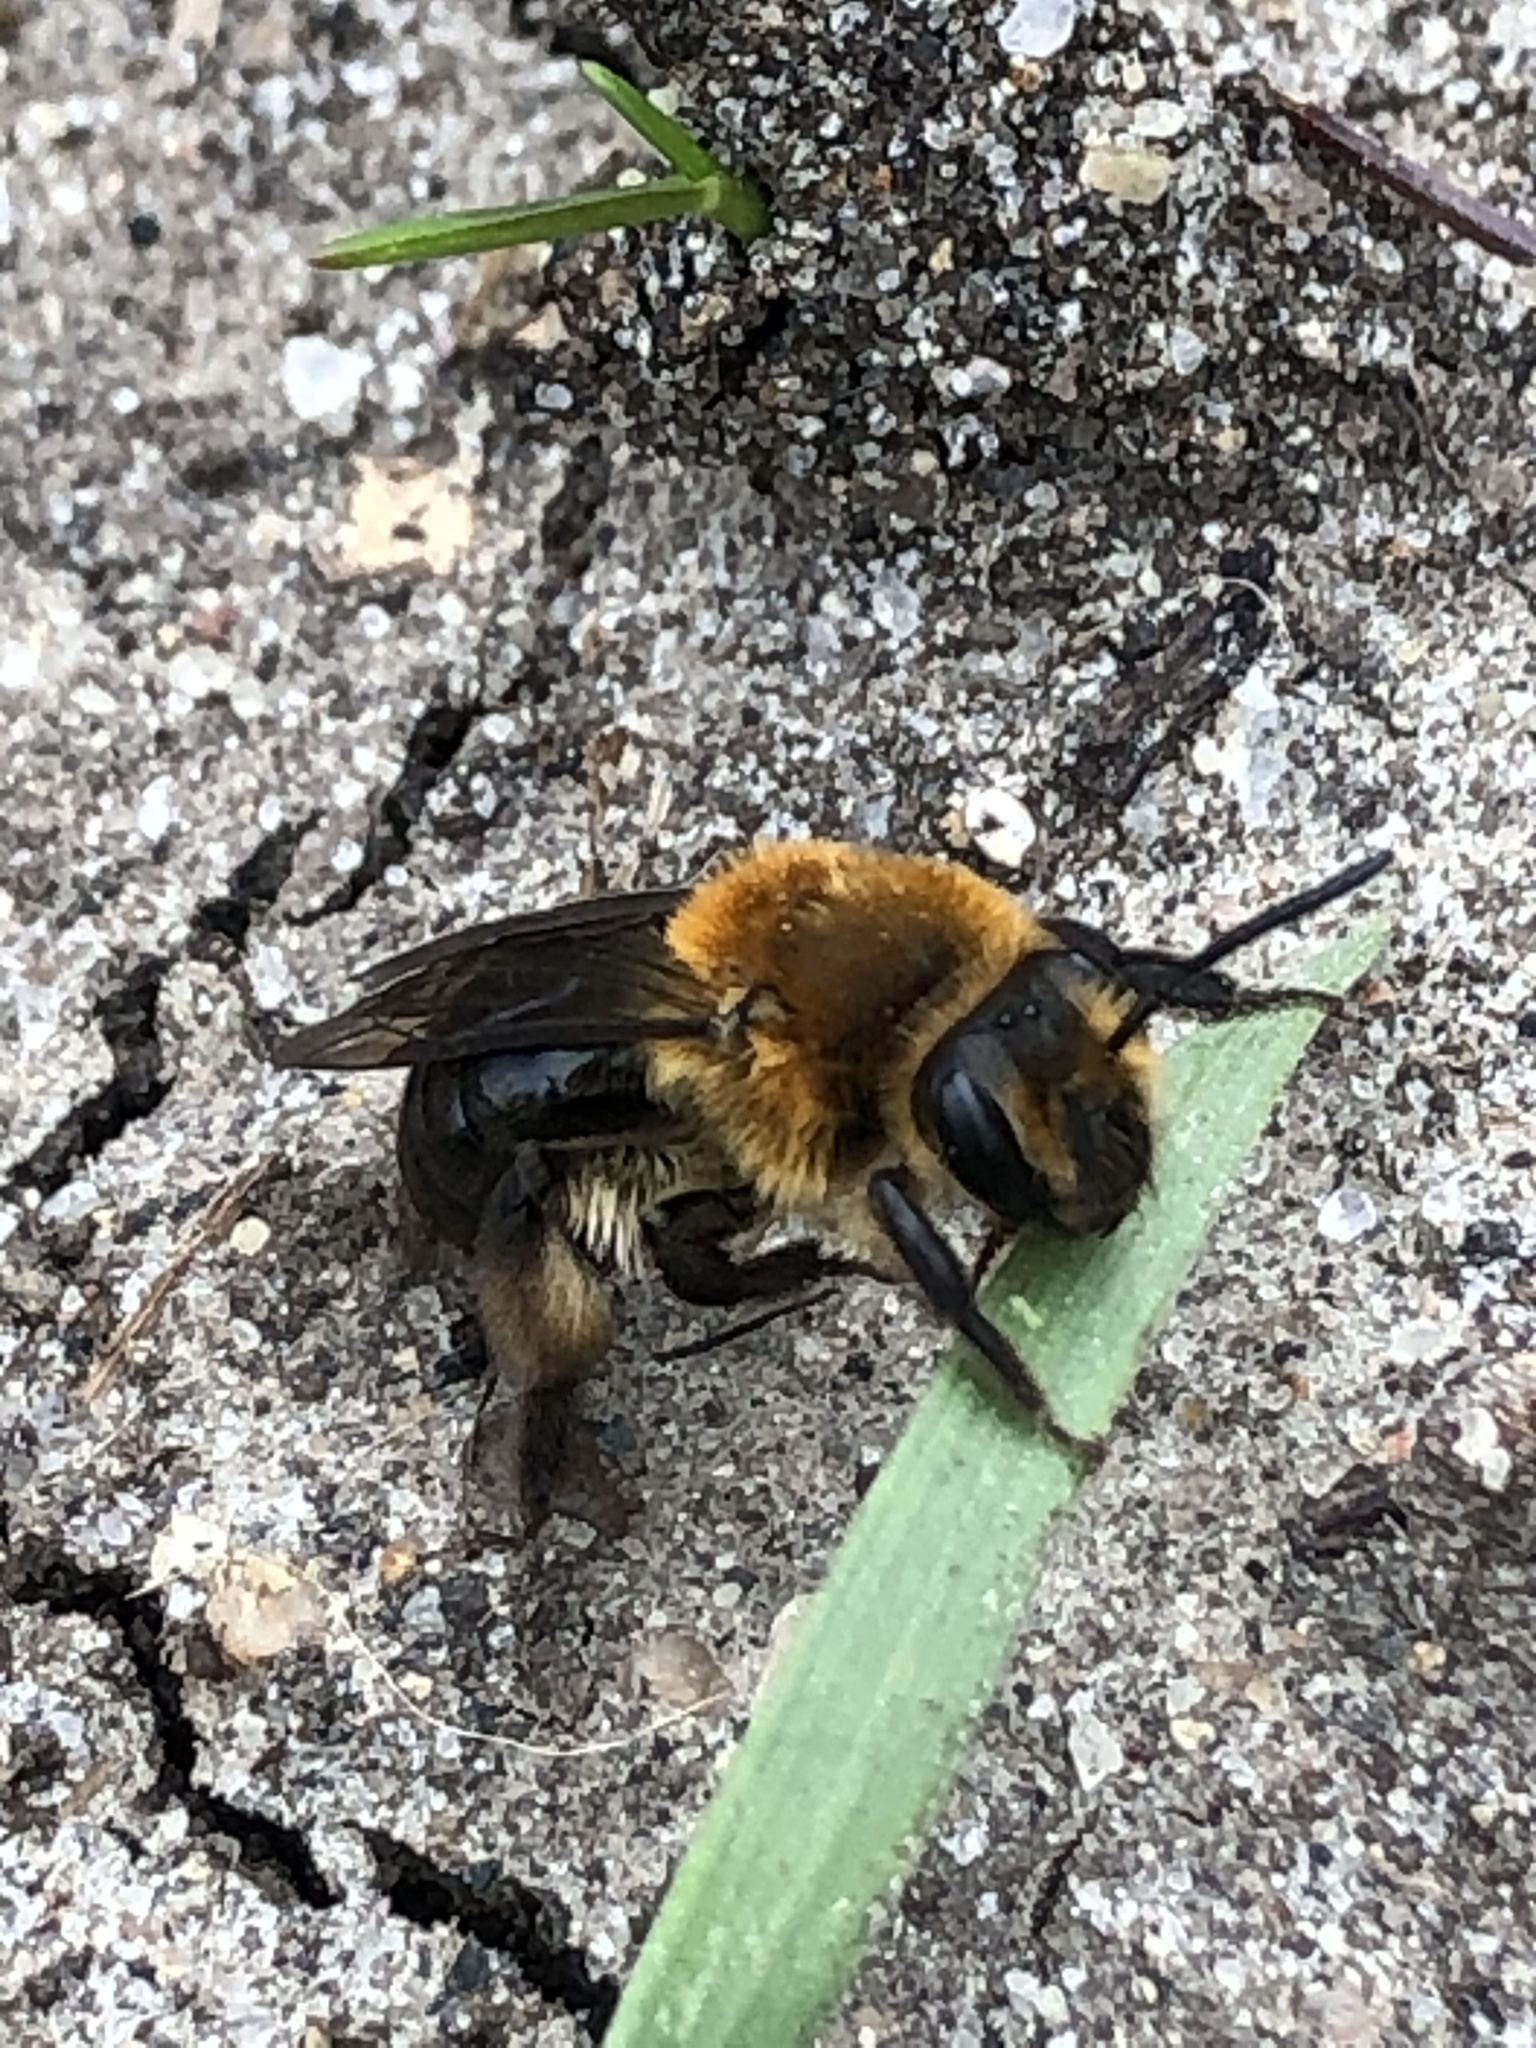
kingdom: Animalia
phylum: Arthropoda
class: Insecta
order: Hymenoptera
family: Andrenidae
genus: Andrena
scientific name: Andrena dunningi
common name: Dunning's miner
